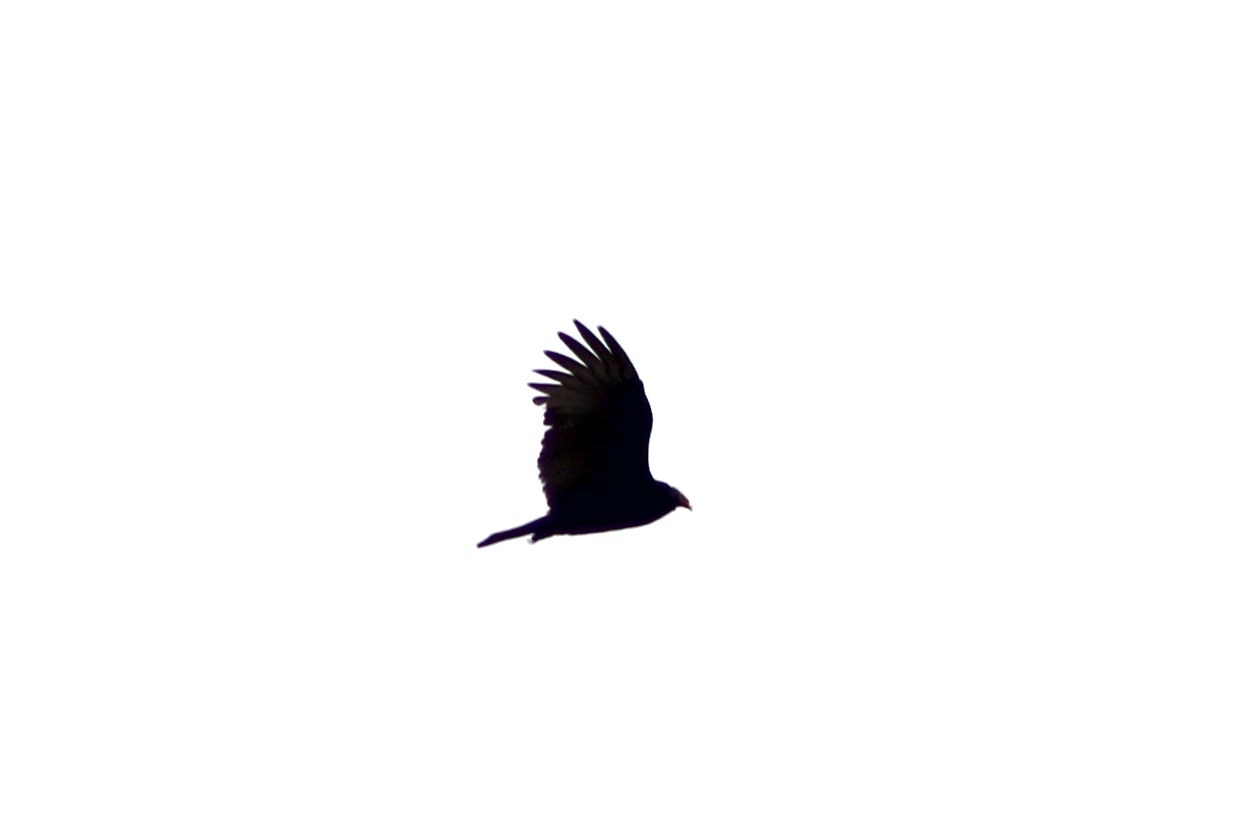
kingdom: Animalia
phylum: Chordata
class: Aves
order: Accipitriformes
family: Cathartidae
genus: Cathartes
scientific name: Cathartes aura
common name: Turkey vulture
